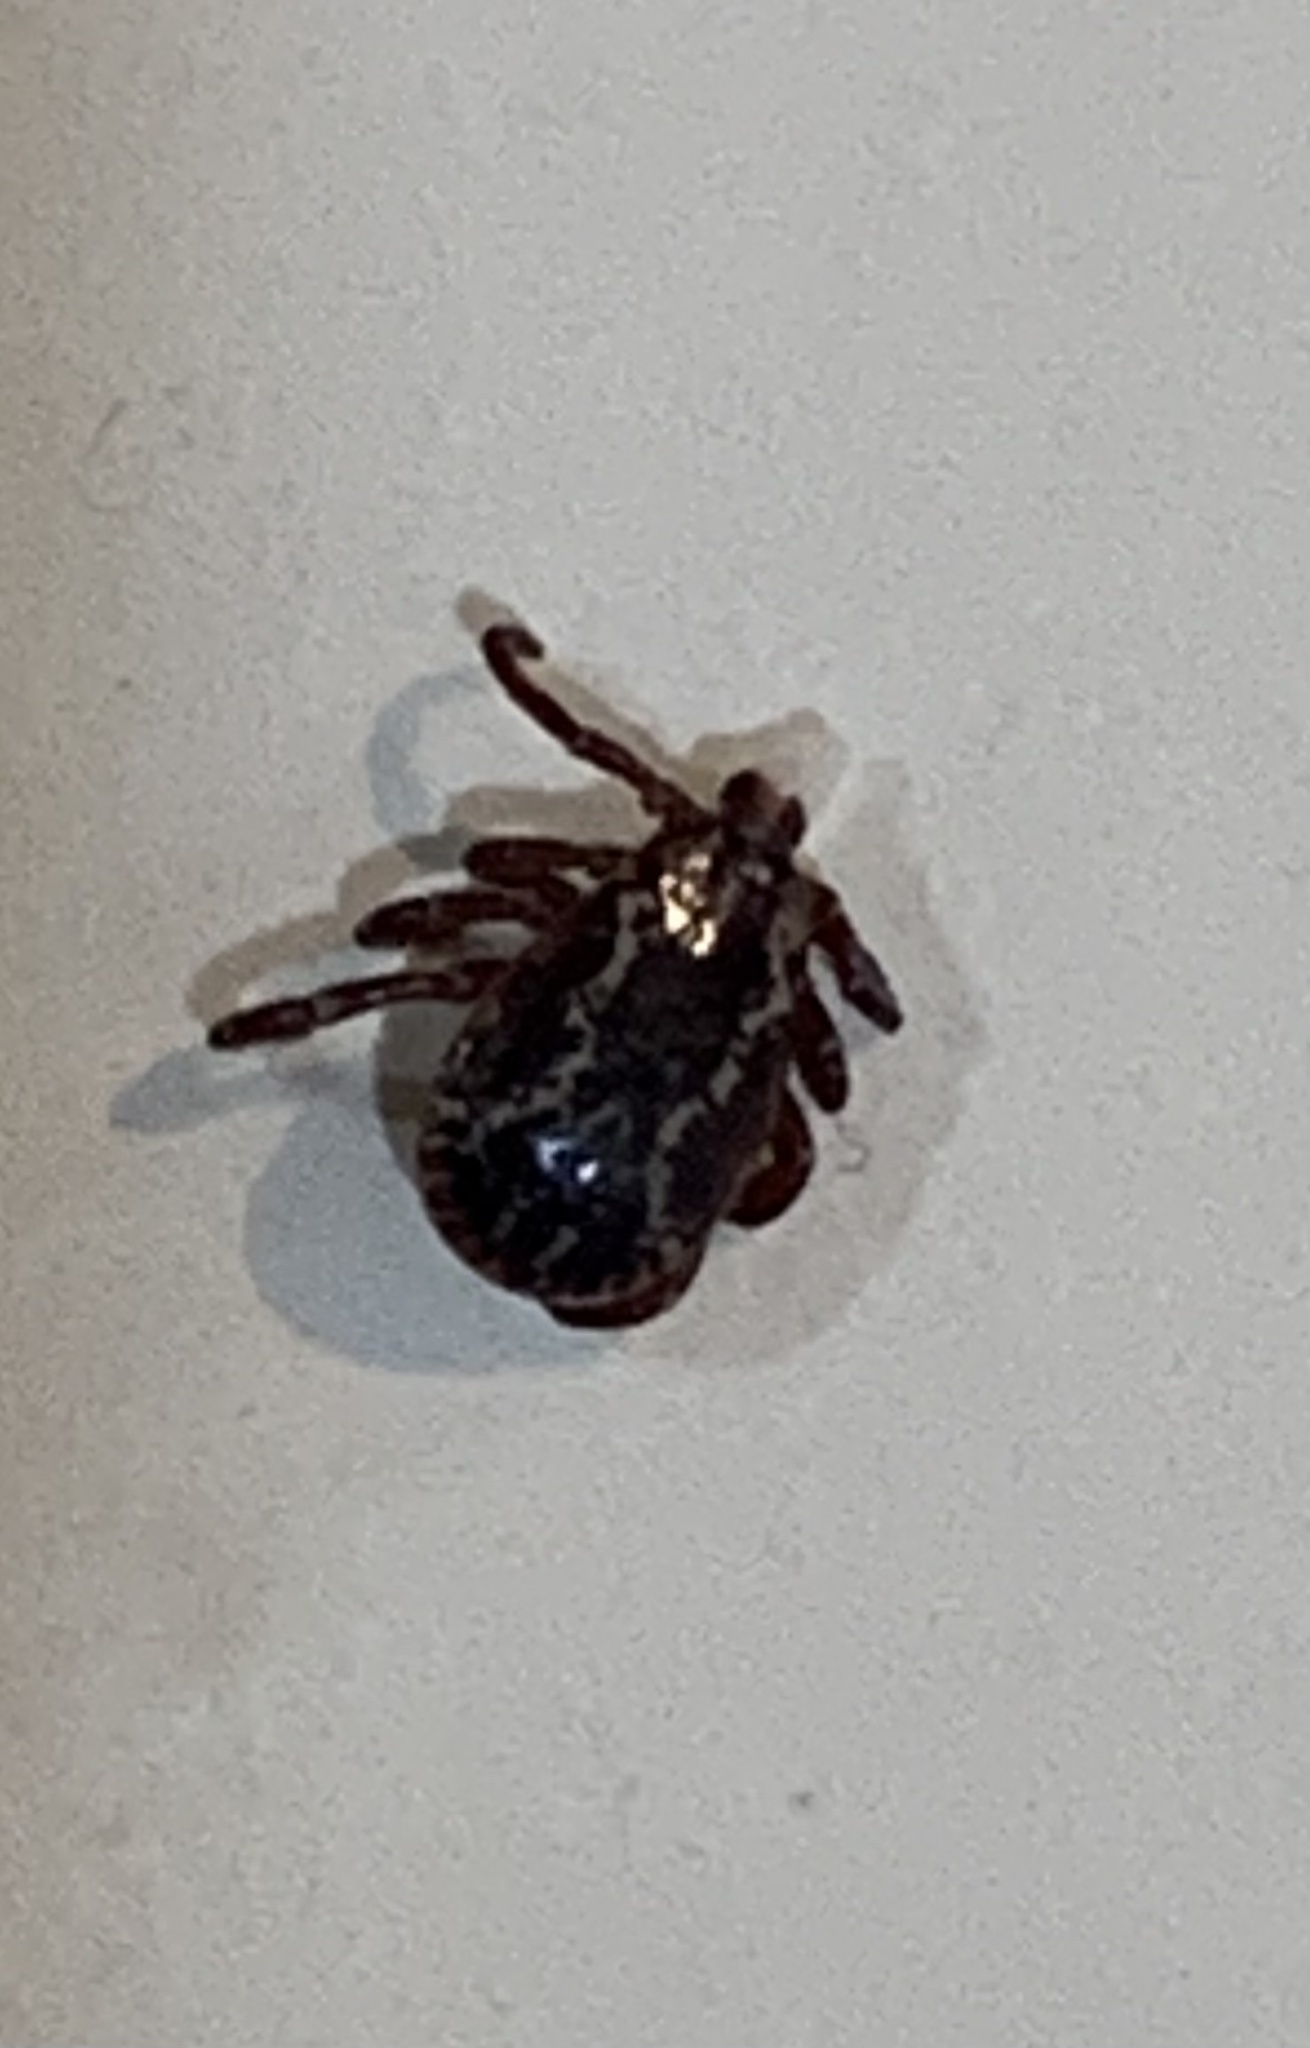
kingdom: Animalia
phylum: Arthropoda
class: Arachnida
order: Ixodida
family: Ixodidae
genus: Dermacentor
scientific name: Dermacentor variabilis
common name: American dog tick
